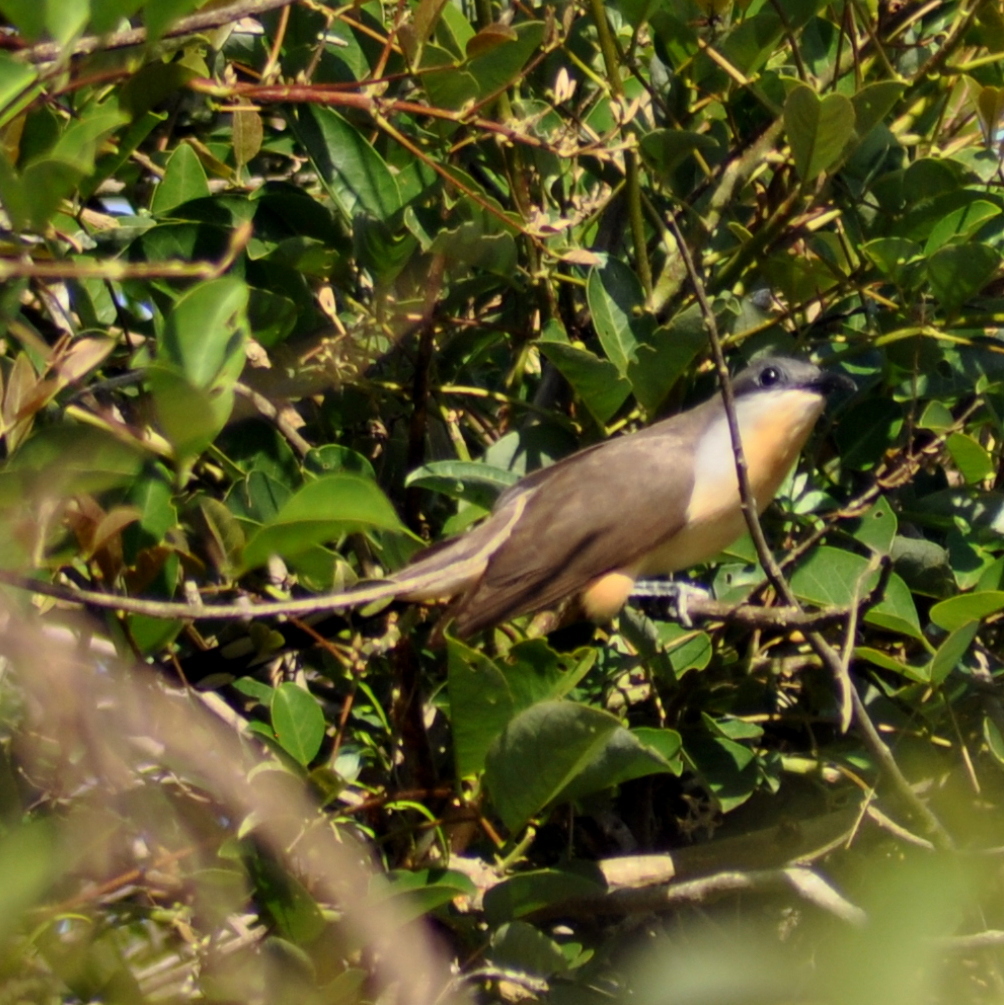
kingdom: Animalia
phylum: Chordata
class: Aves
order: Cuculiformes
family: Cuculidae
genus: Coccyzus
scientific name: Coccyzus melacoryphus
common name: Dark-billed cuckoo
